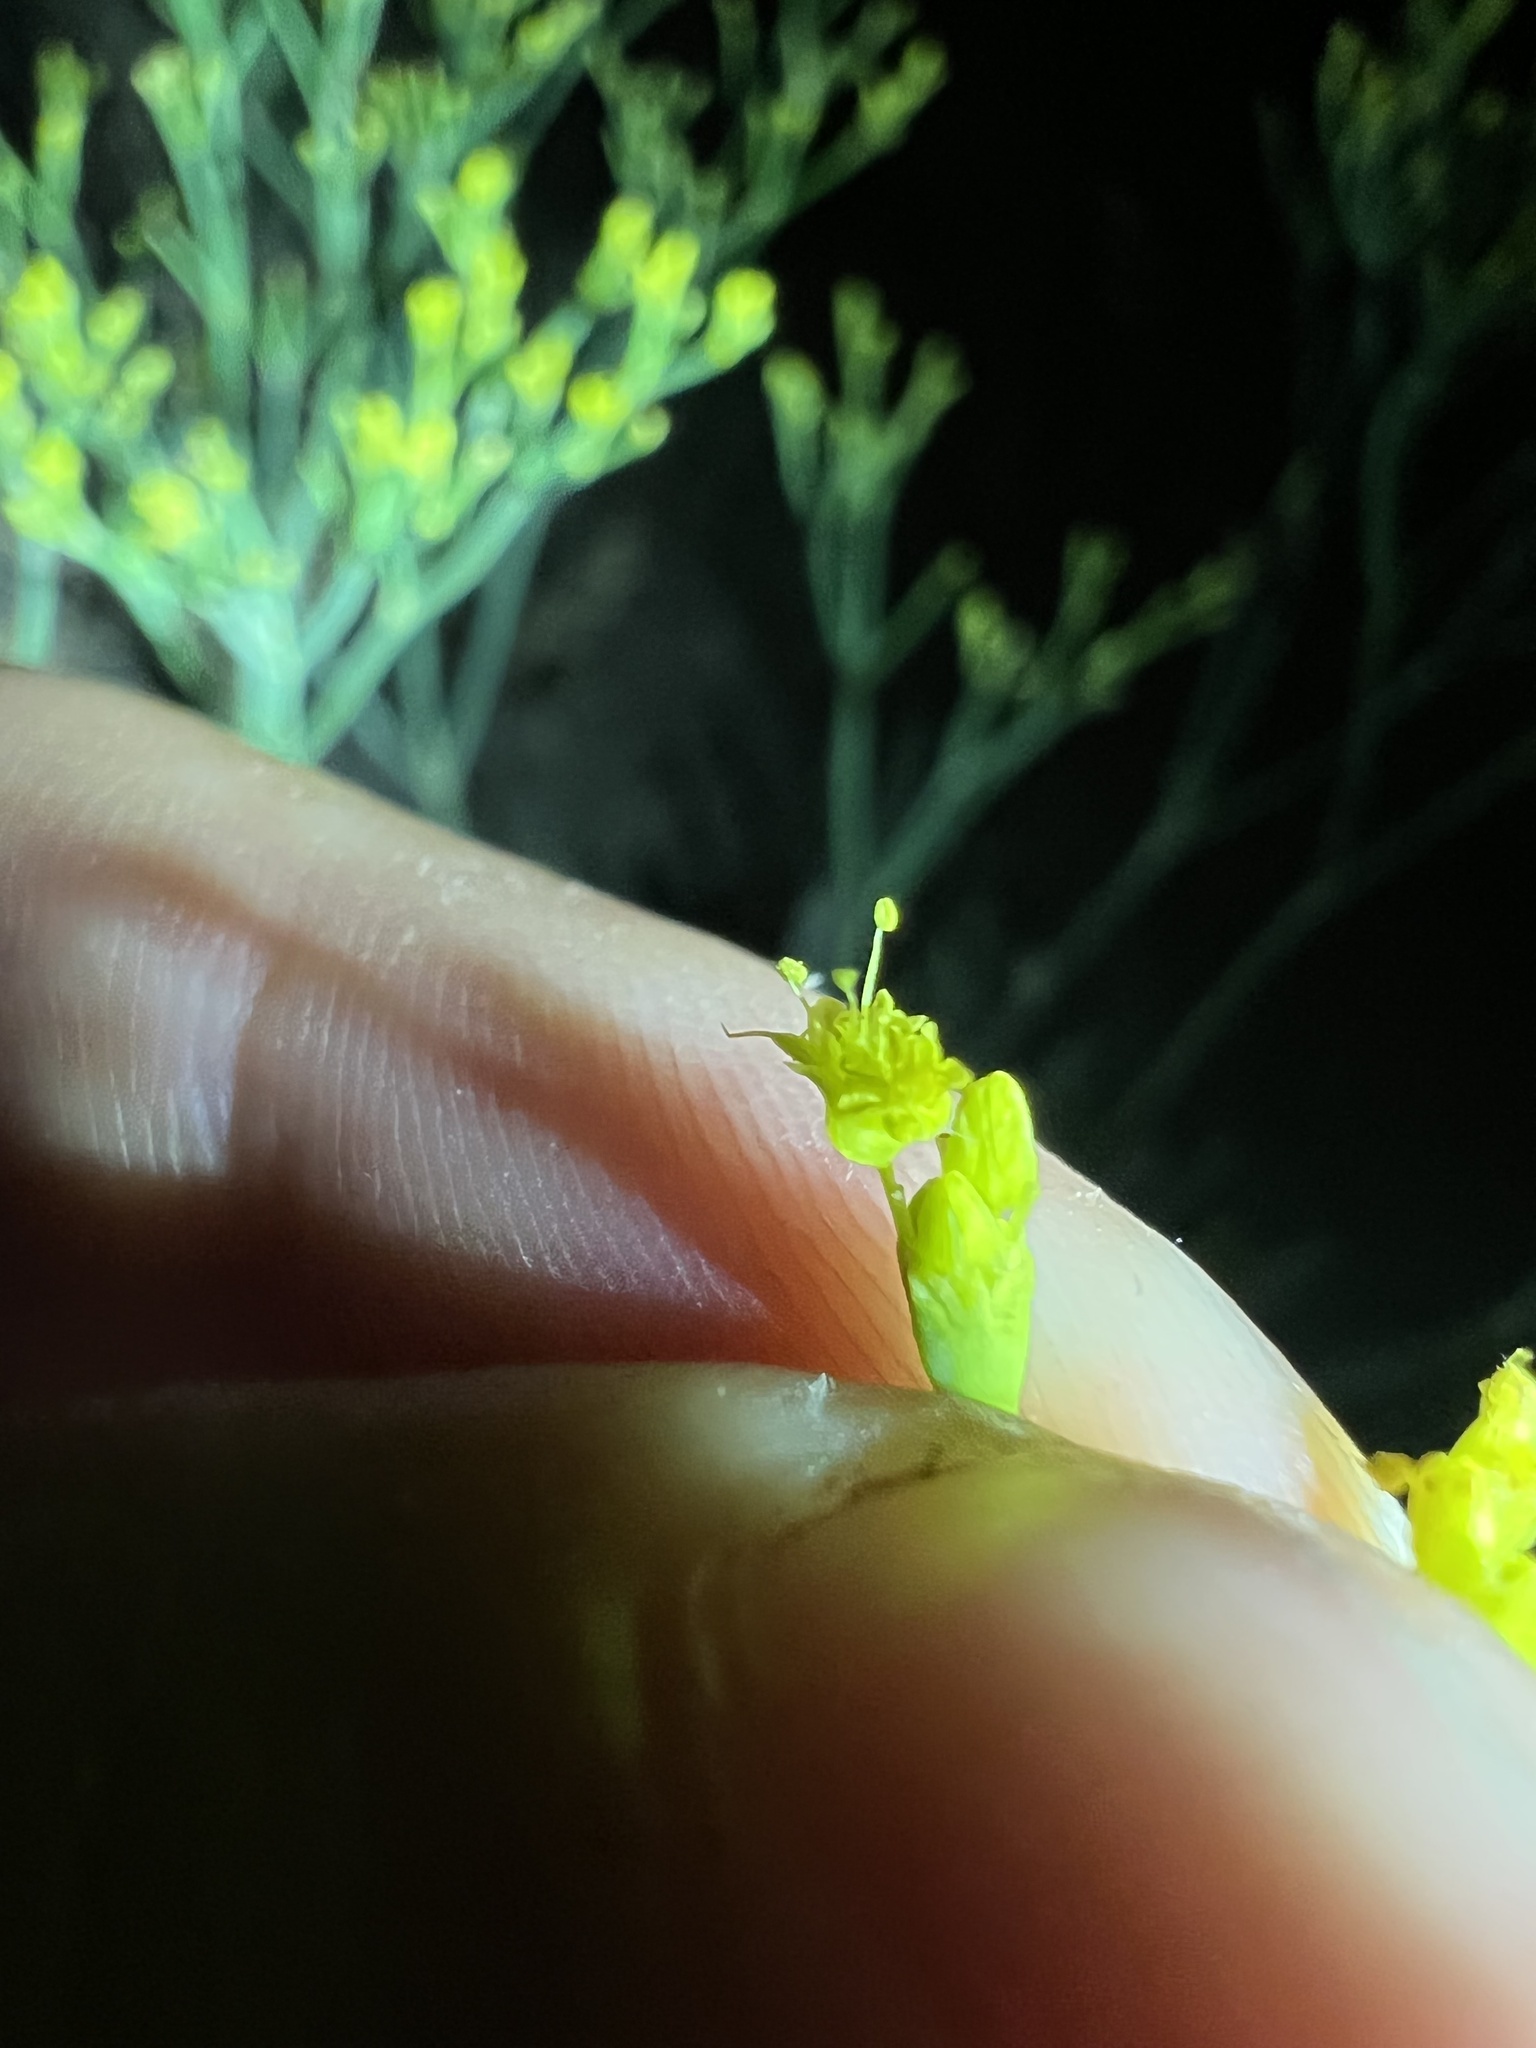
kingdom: Plantae
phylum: Tracheophyta
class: Magnoliopsida
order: Caryophyllales
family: Polygonaceae
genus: Eriogonum
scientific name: Eriogonum brevicaule
